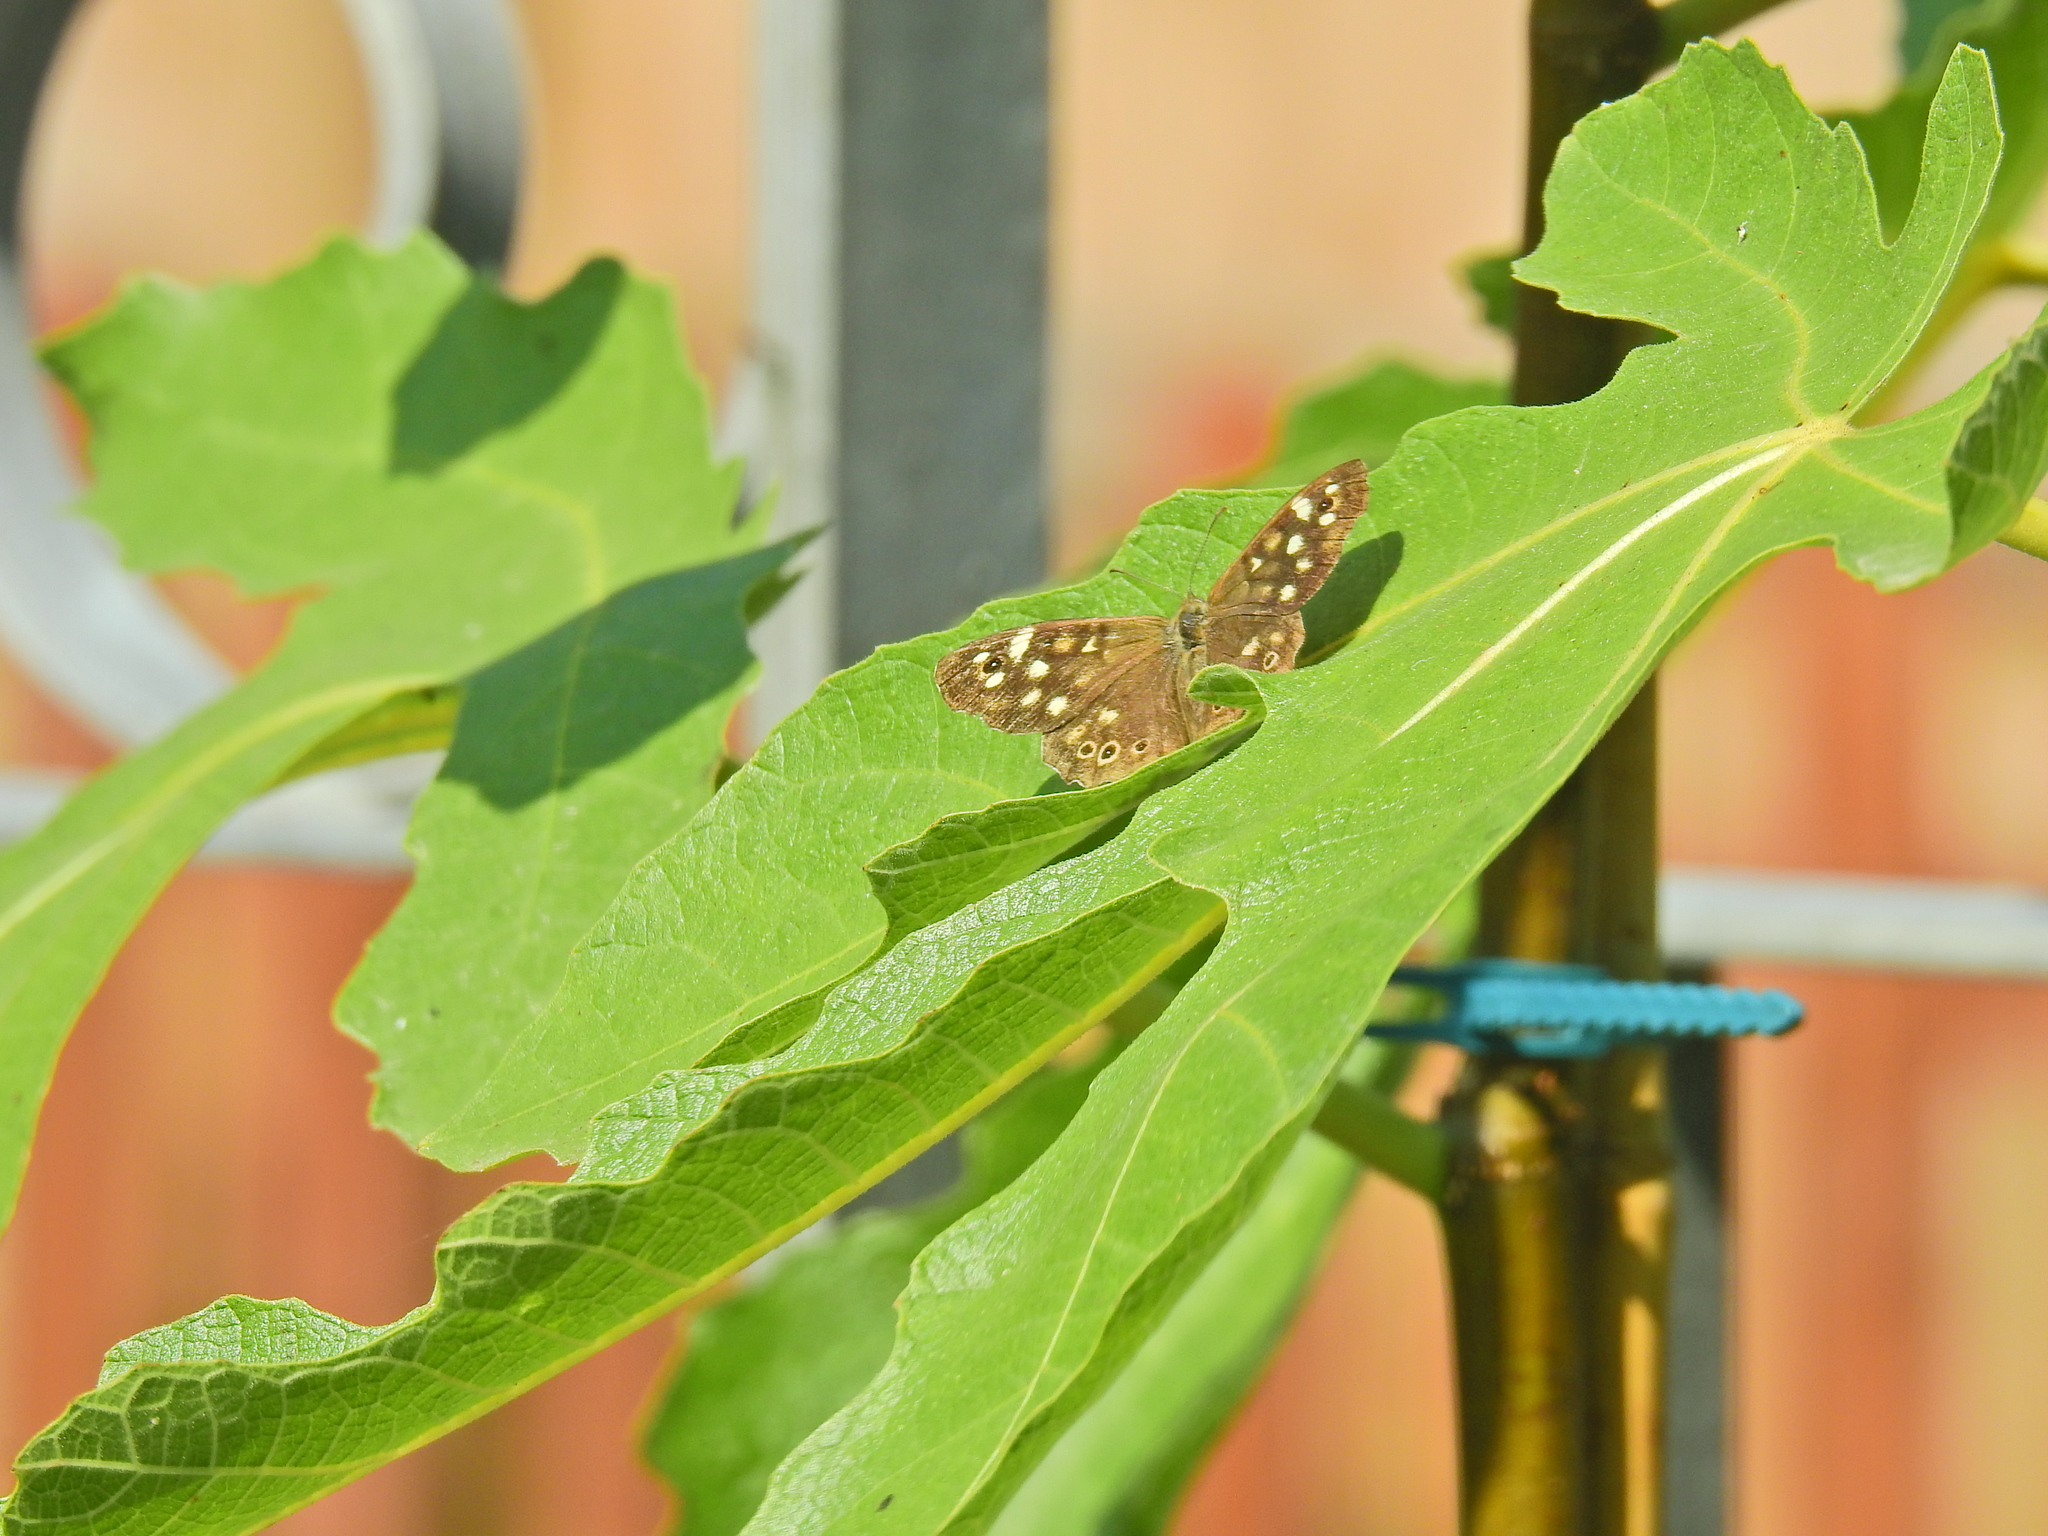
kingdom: Animalia
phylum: Arthropoda
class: Insecta
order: Lepidoptera
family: Nymphalidae
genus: Pararge
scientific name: Pararge aegeria
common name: Speckled wood
